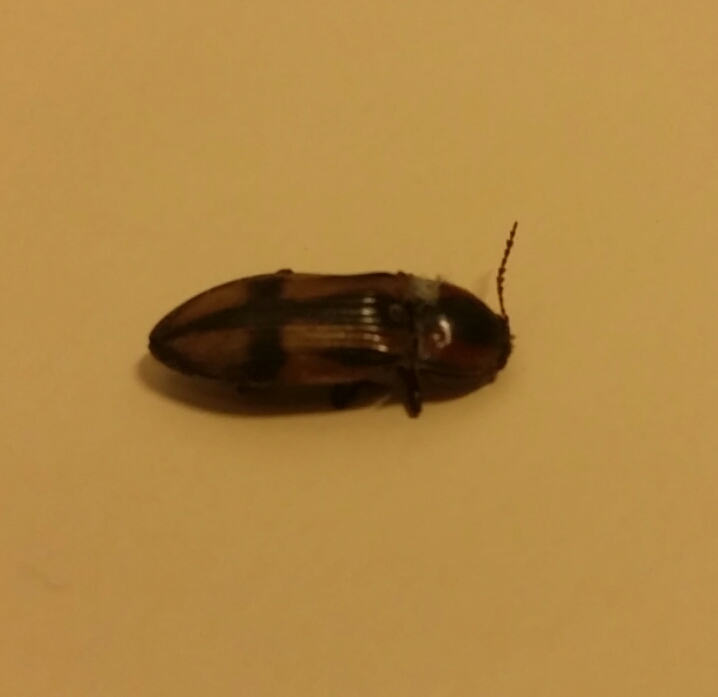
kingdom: Animalia
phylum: Arthropoda
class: Insecta
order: Coleoptera
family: Elateridae
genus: Selatosomus
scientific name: Selatosomus cruciatus
